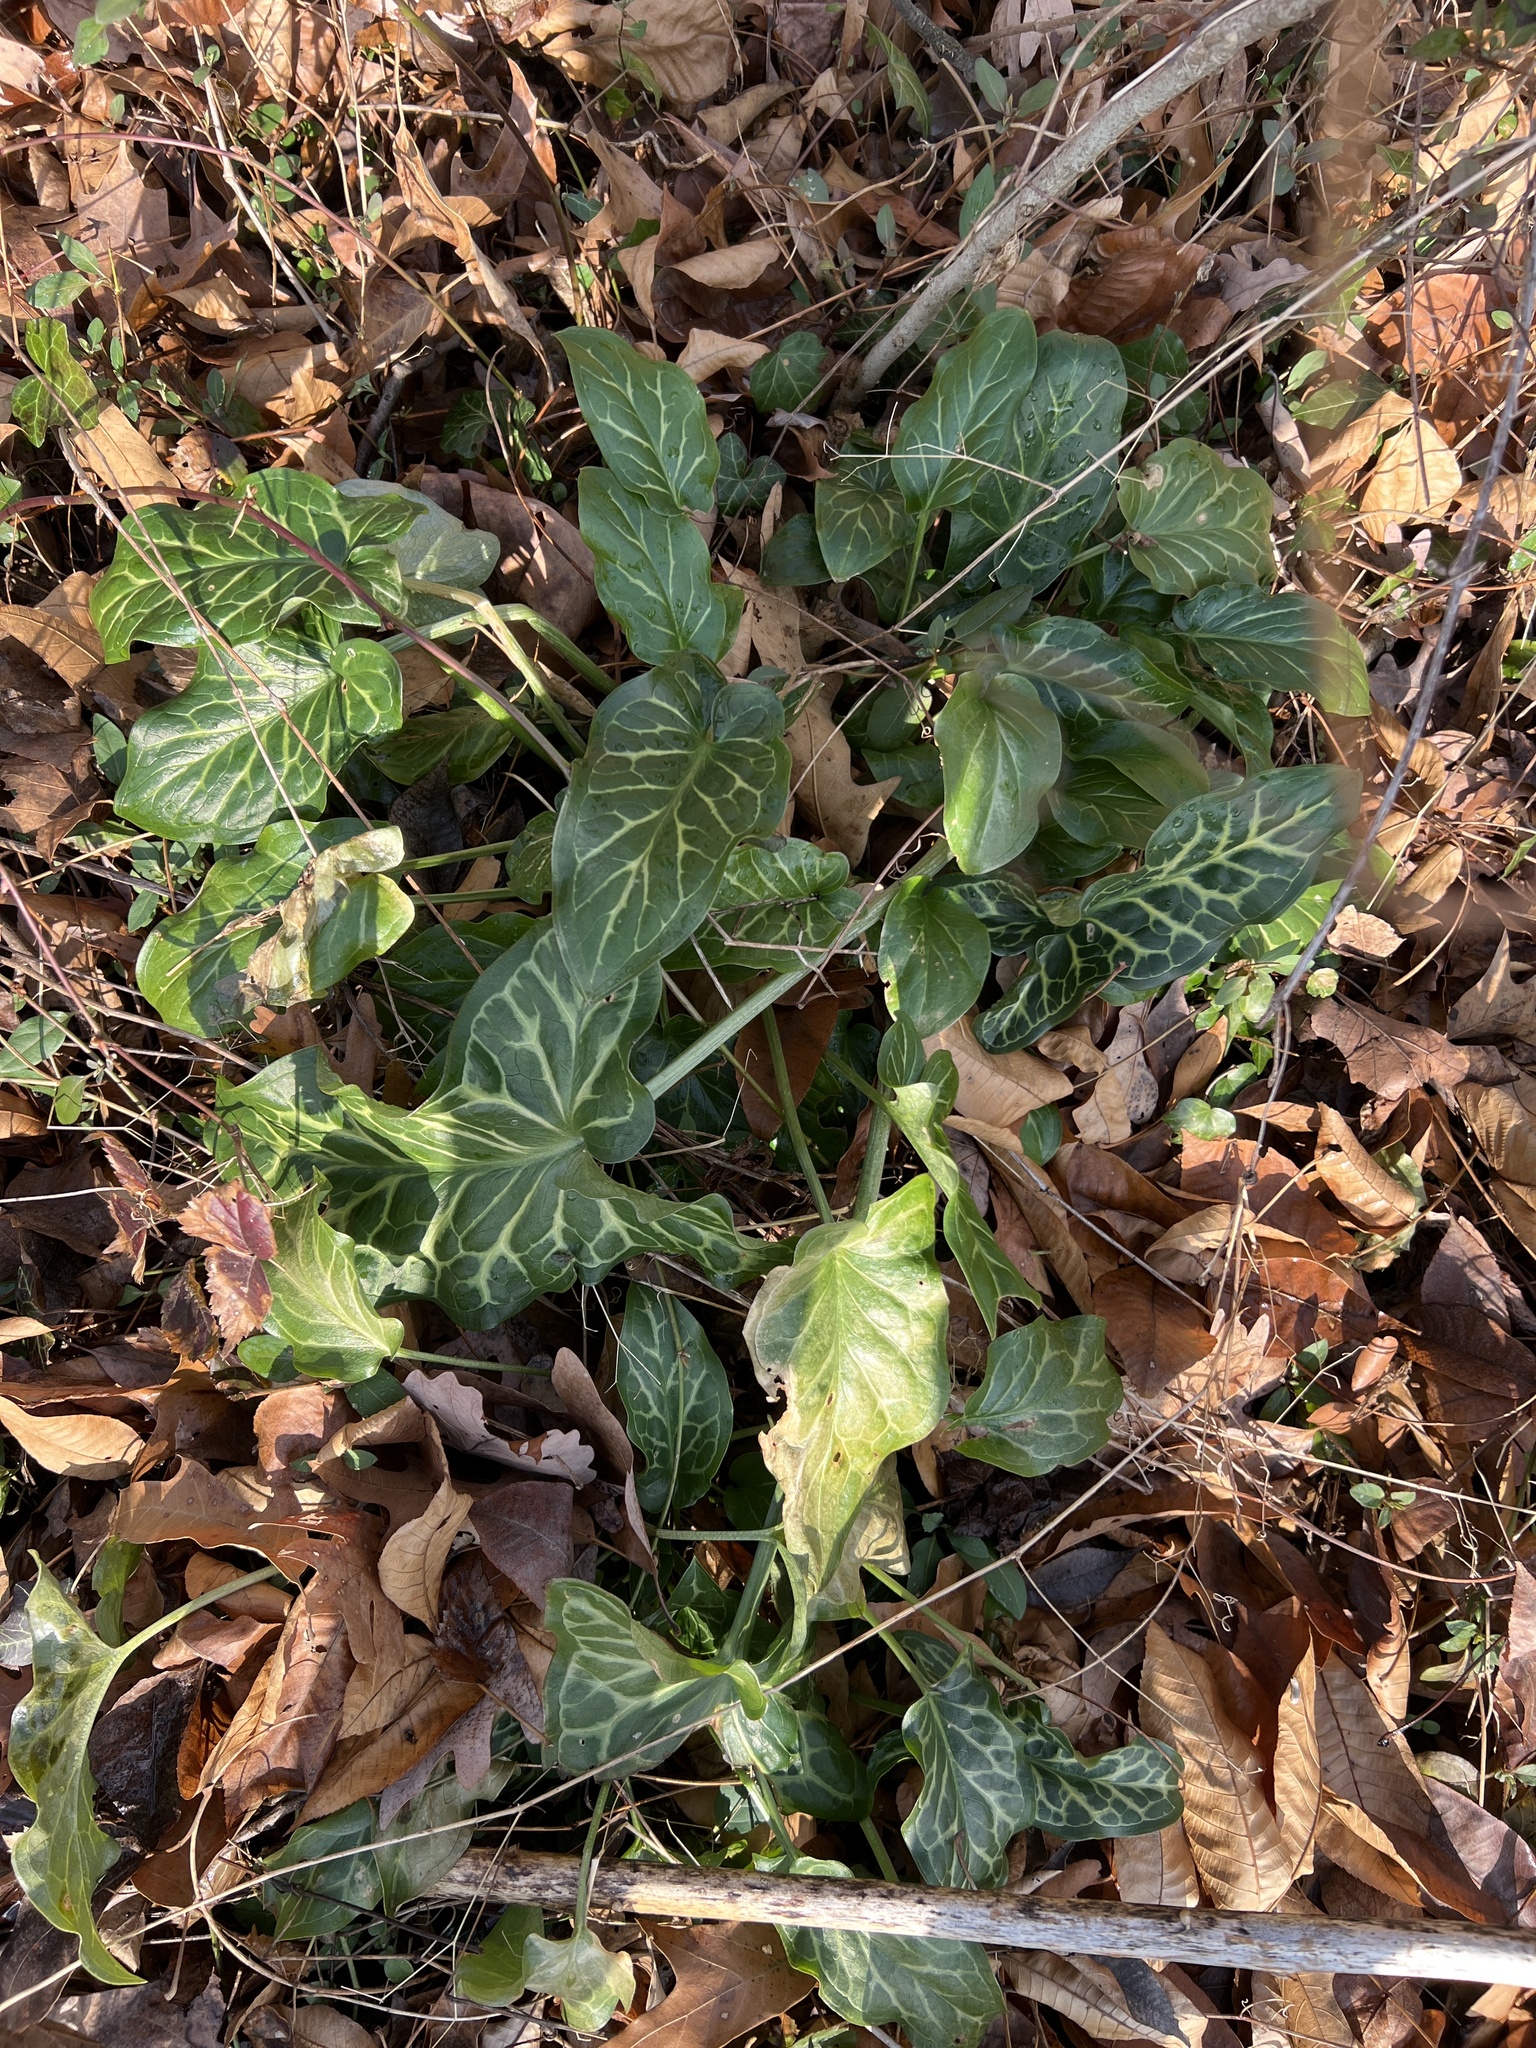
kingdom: Plantae
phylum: Tracheophyta
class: Liliopsida
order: Alismatales
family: Araceae
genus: Arum
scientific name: Arum italicum
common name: Italian lords-and-ladies
